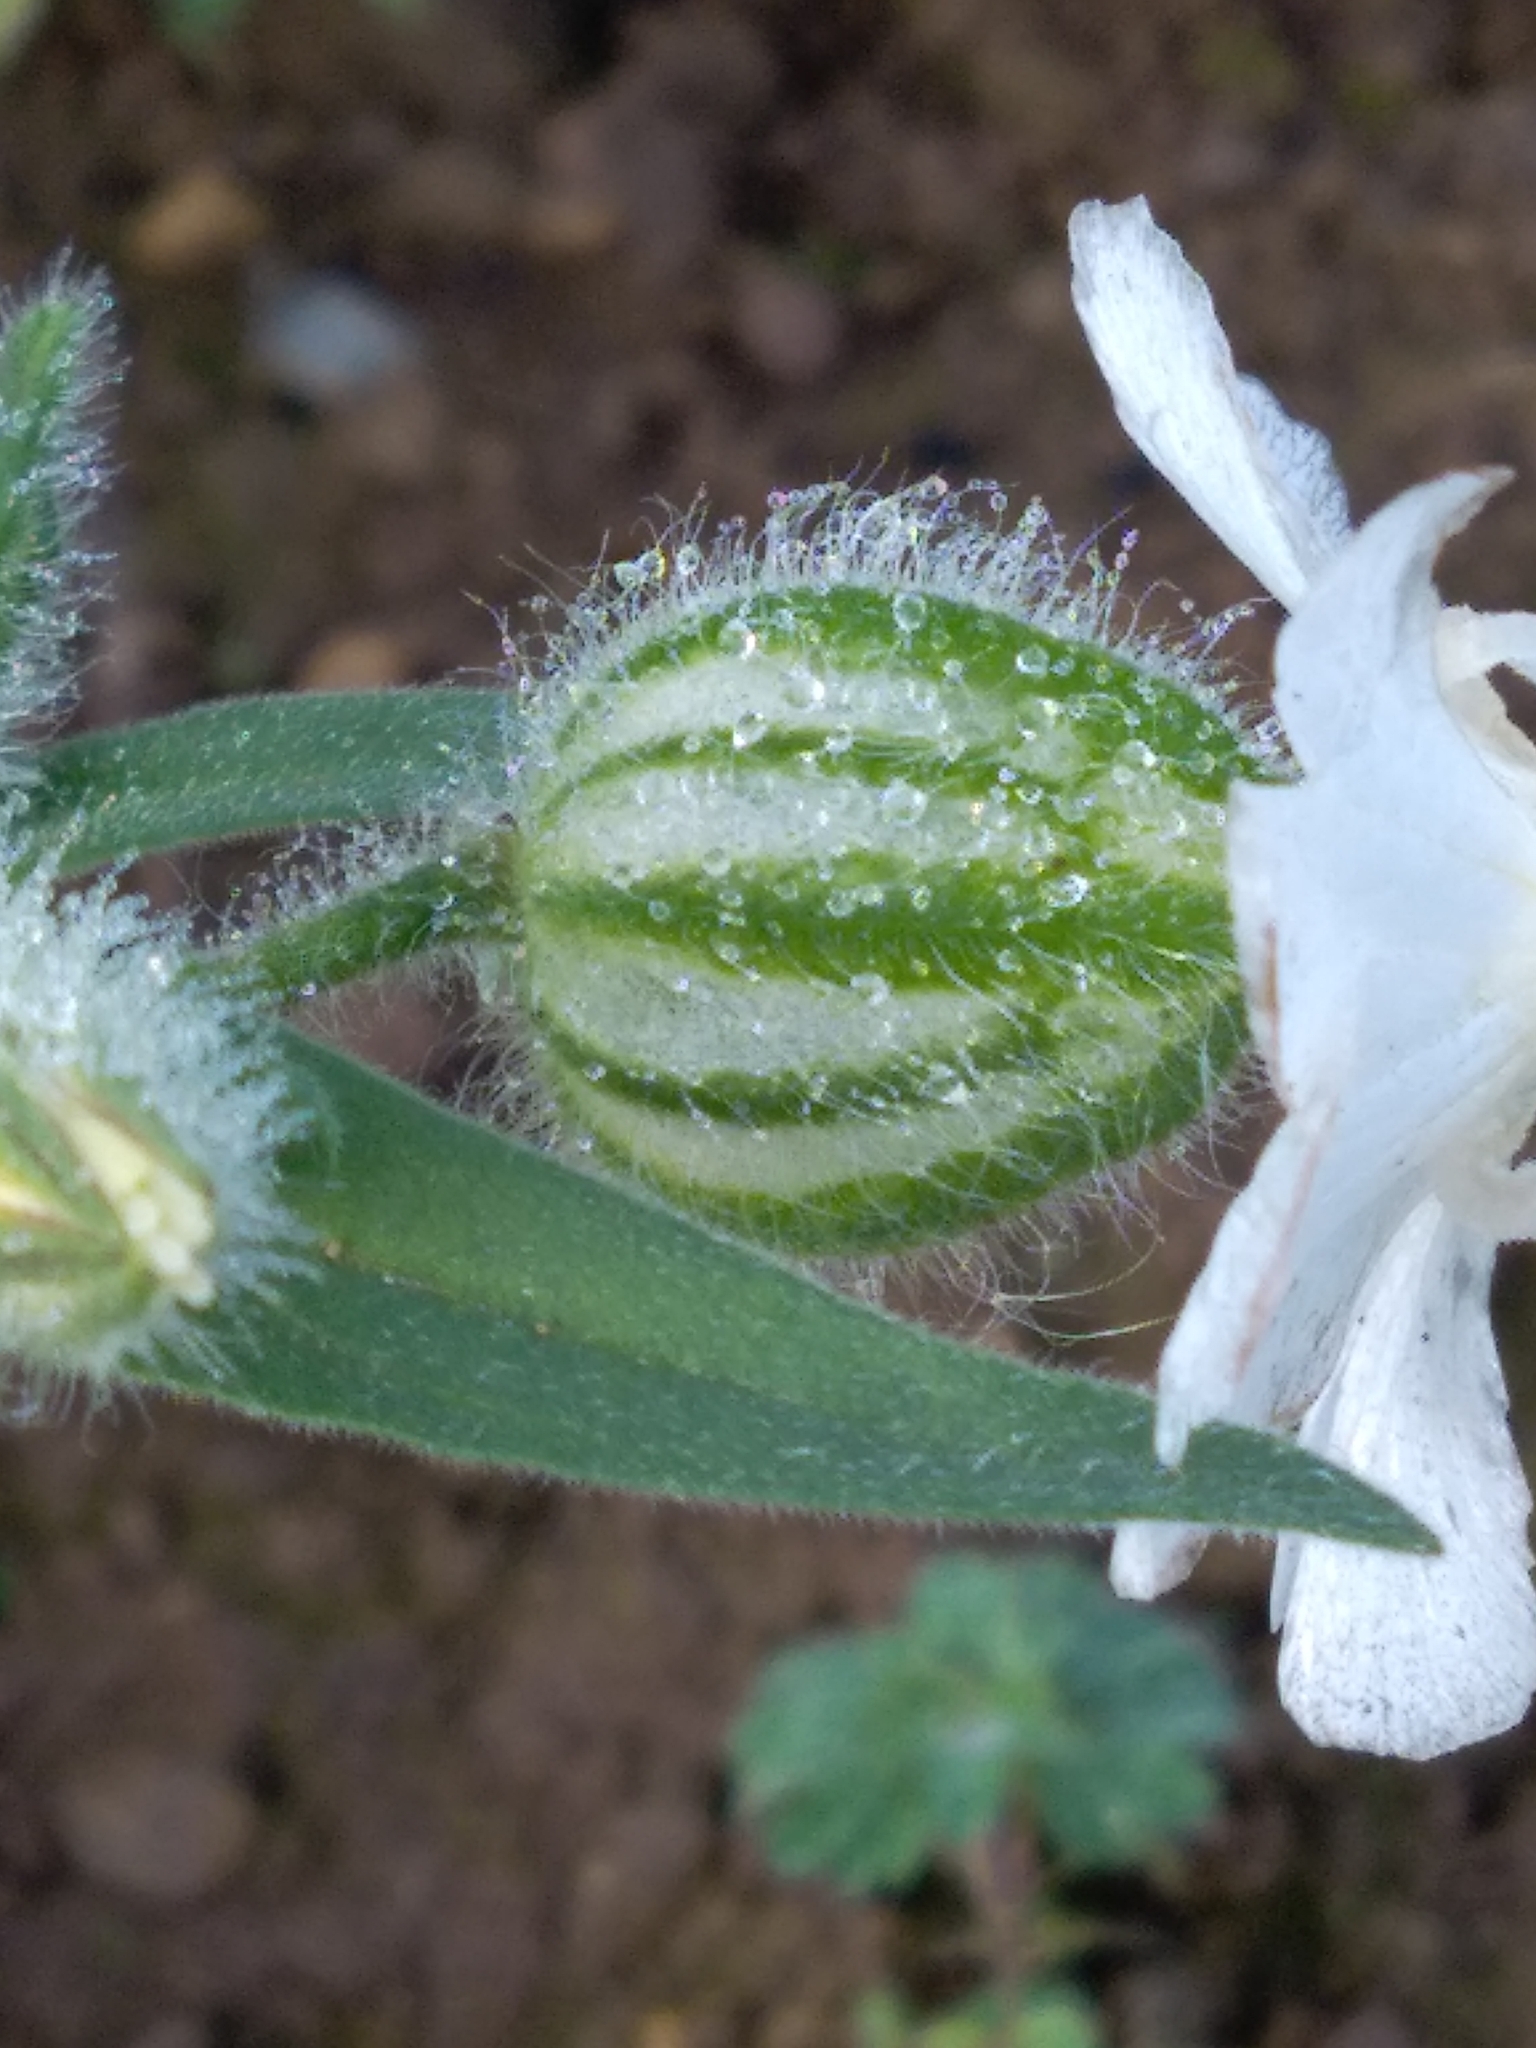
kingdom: Plantae
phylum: Tracheophyta
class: Magnoliopsida
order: Caryophyllales
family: Caryophyllaceae
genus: Silene
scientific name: Silene latifolia
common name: White campion
